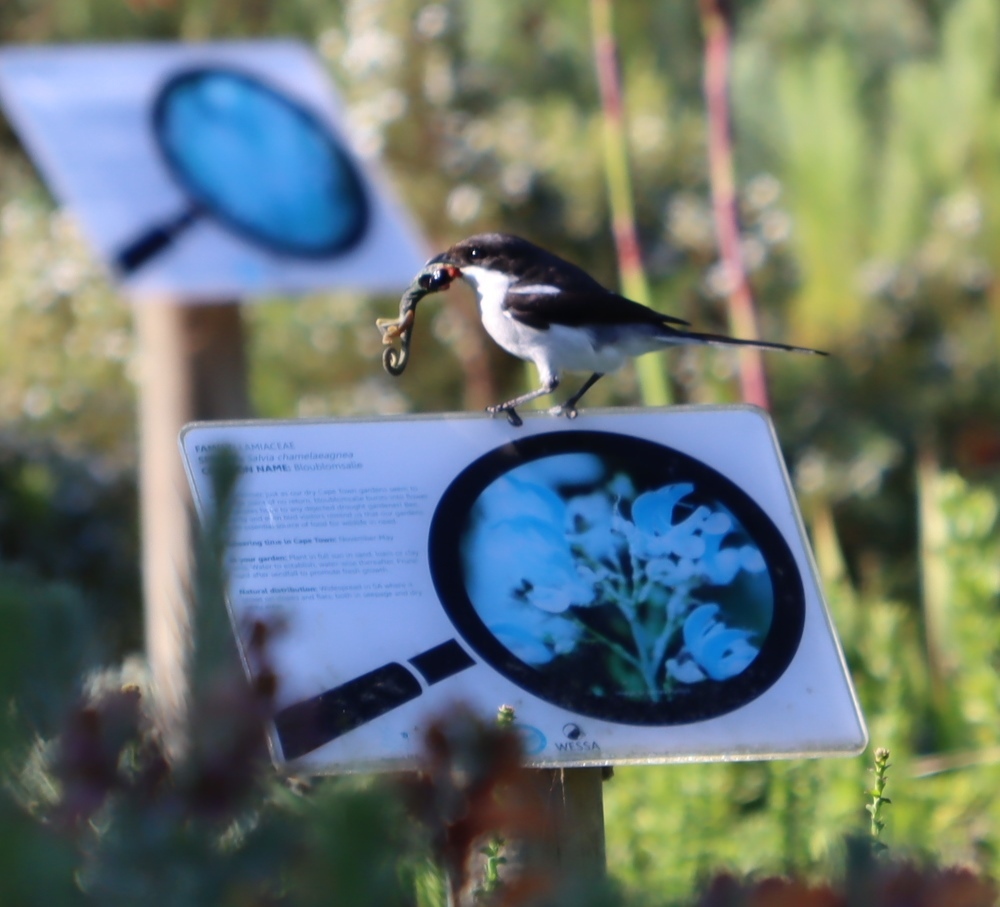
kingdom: Animalia
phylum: Chordata
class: Aves
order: Passeriformes
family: Laniidae
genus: Lanius
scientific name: Lanius collaris
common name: Southern fiscal
